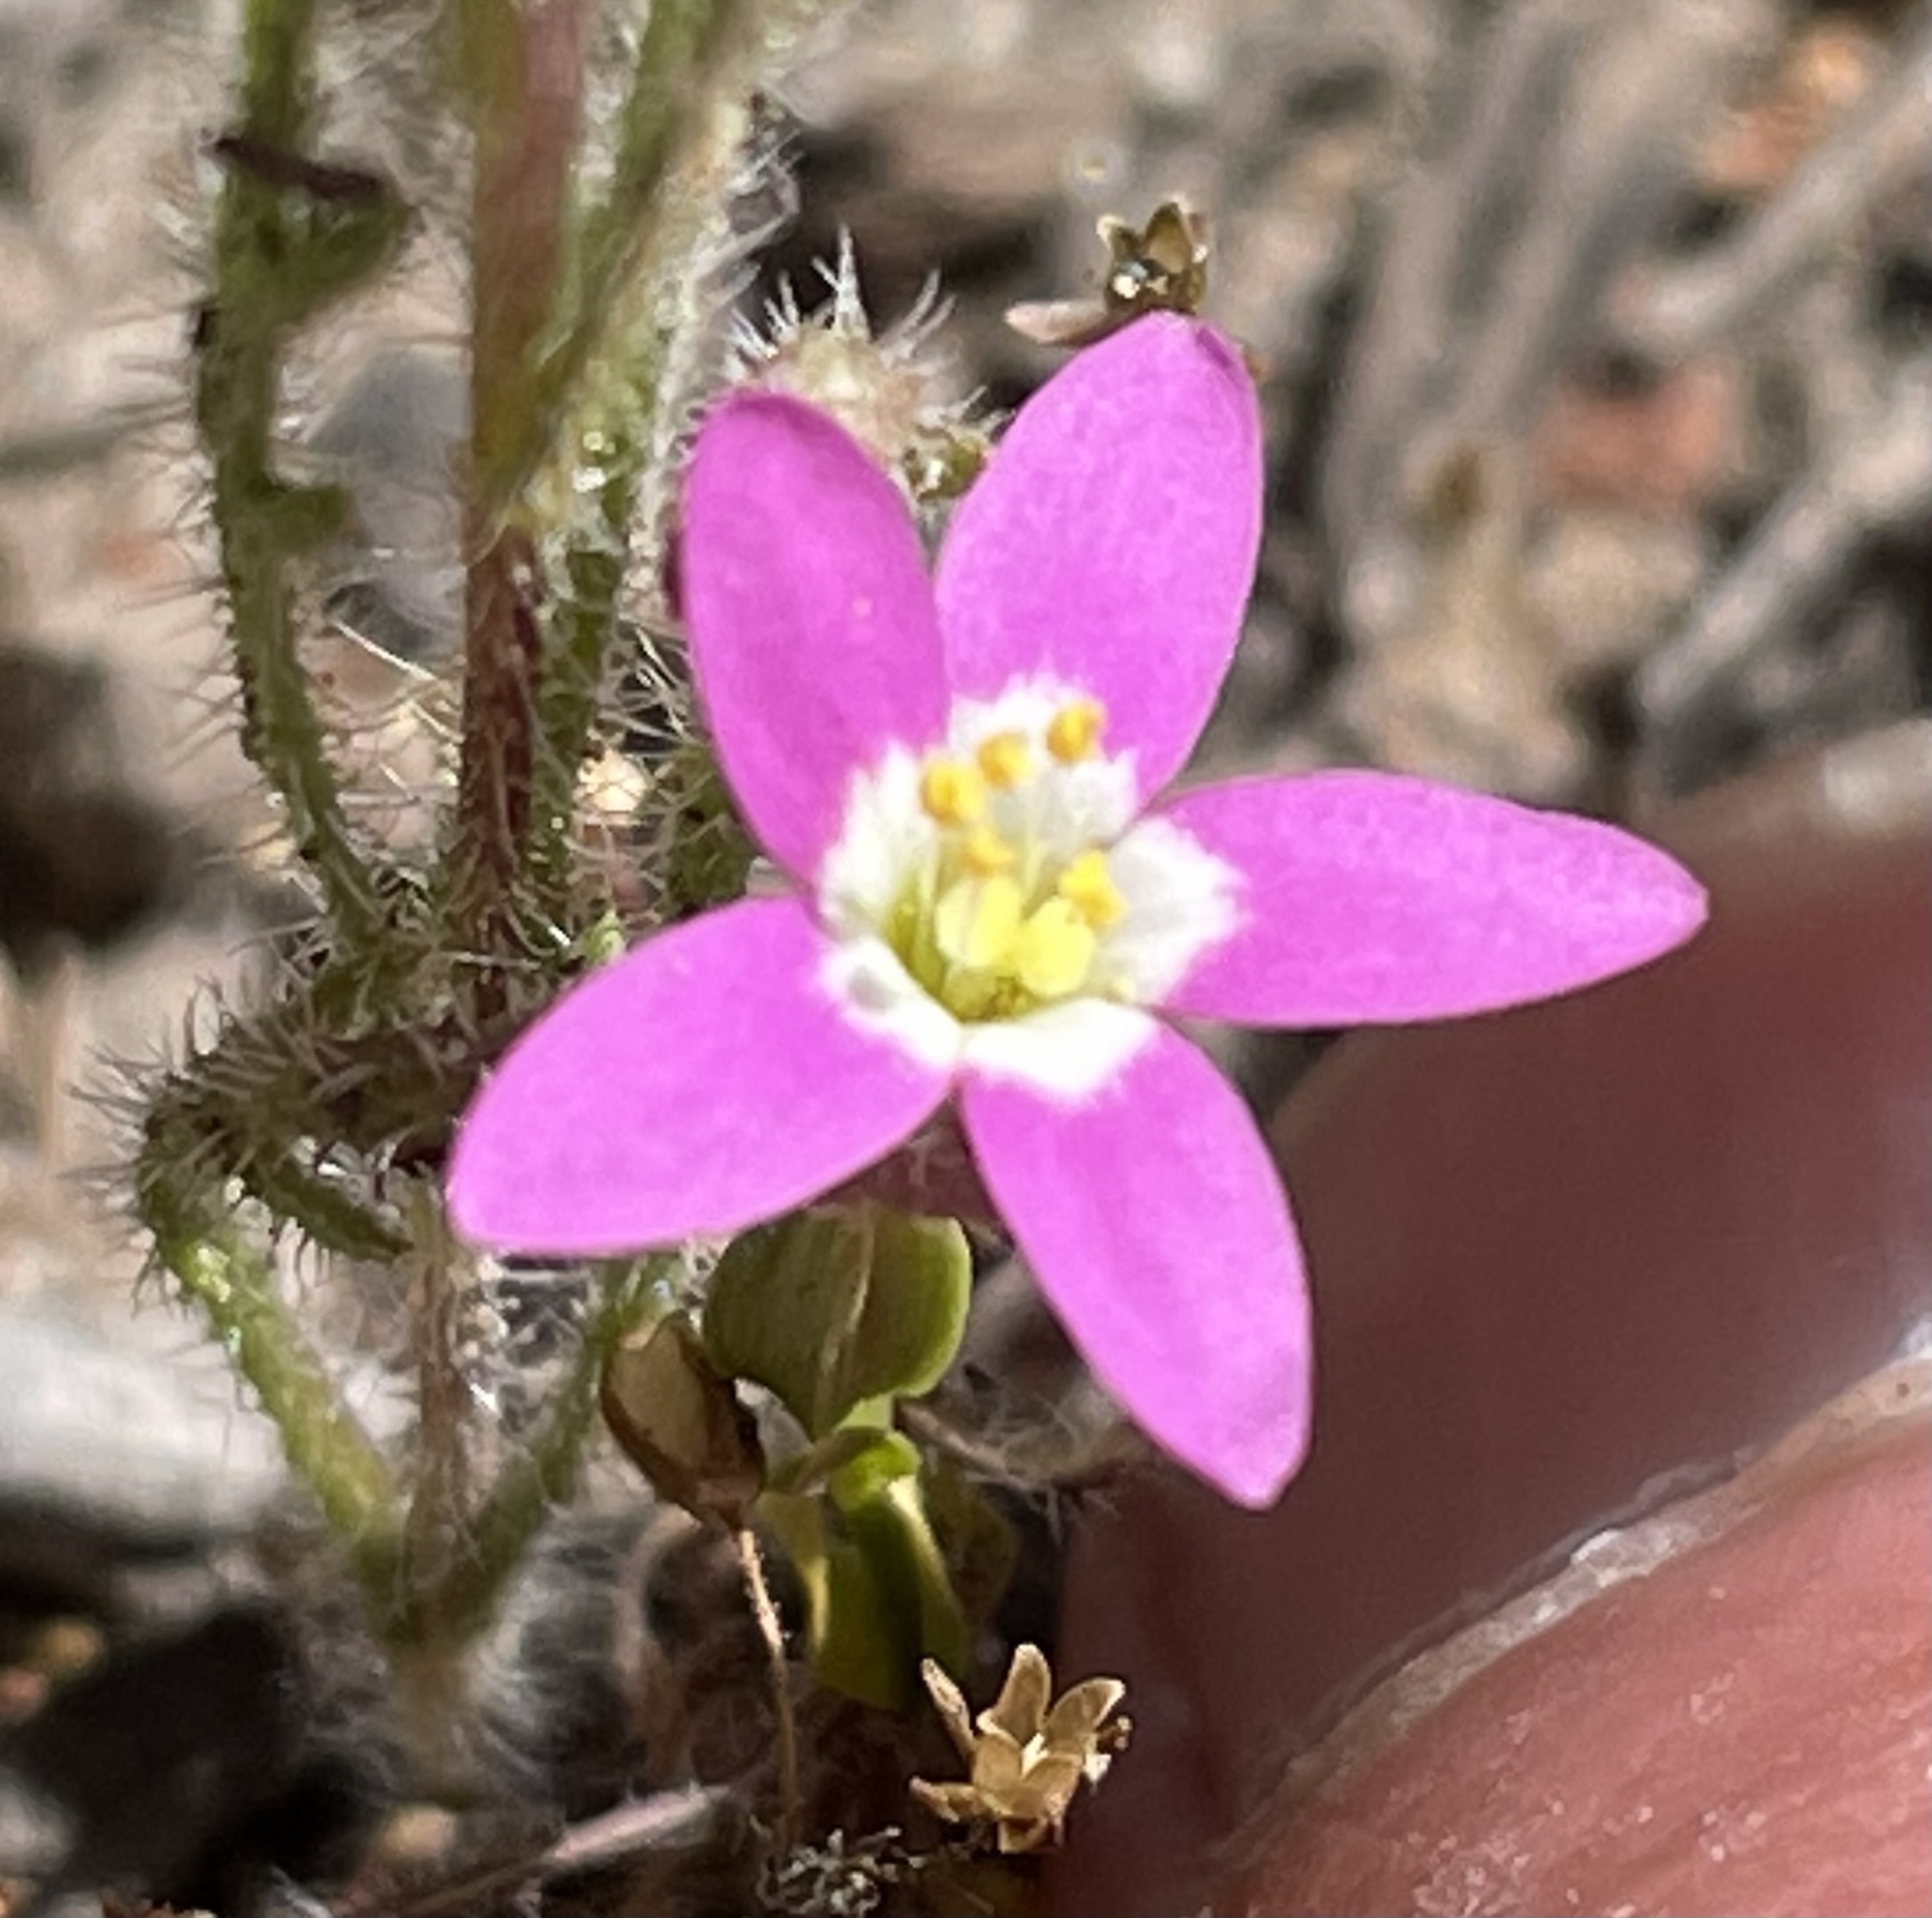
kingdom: Plantae
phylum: Tracheophyta
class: Magnoliopsida
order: Gentianales
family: Gentianaceae
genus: Zeltnera
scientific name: Zeltnera davyi
